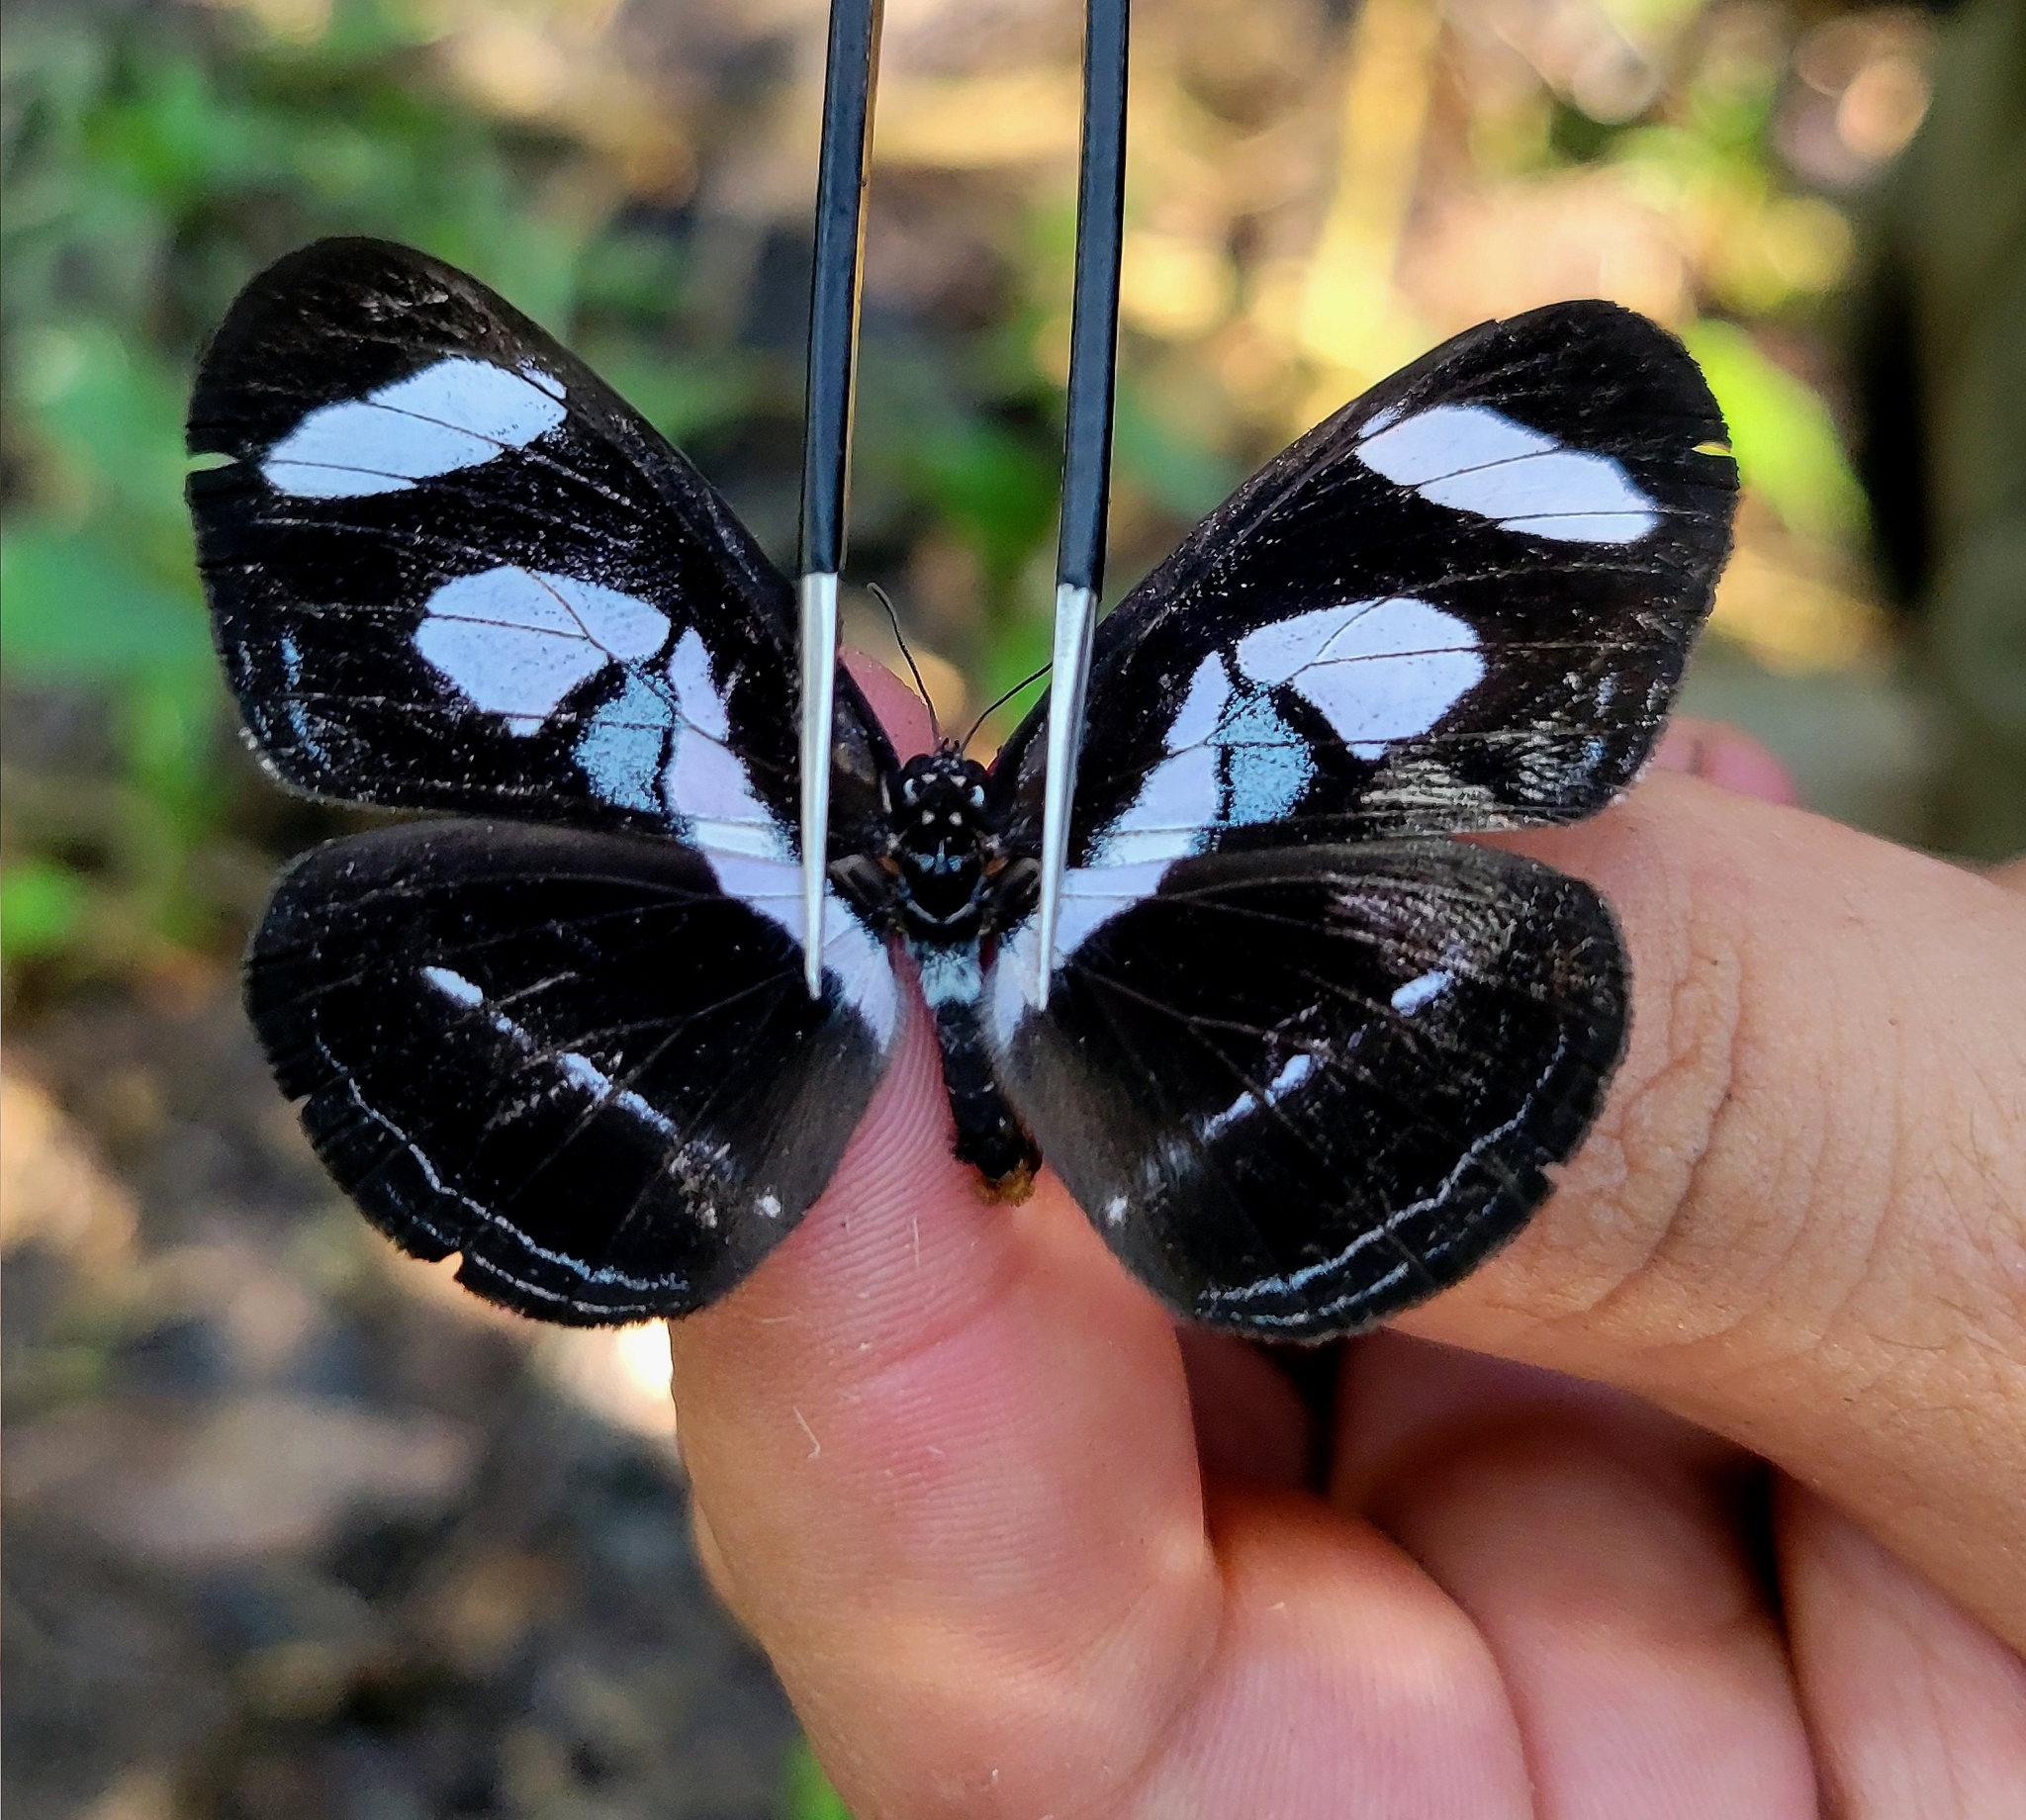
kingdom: Animalia
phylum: Arthropoda
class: Insecta
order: Lepidoptera
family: Nymphalidae
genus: Vila
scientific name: Vila emilia
